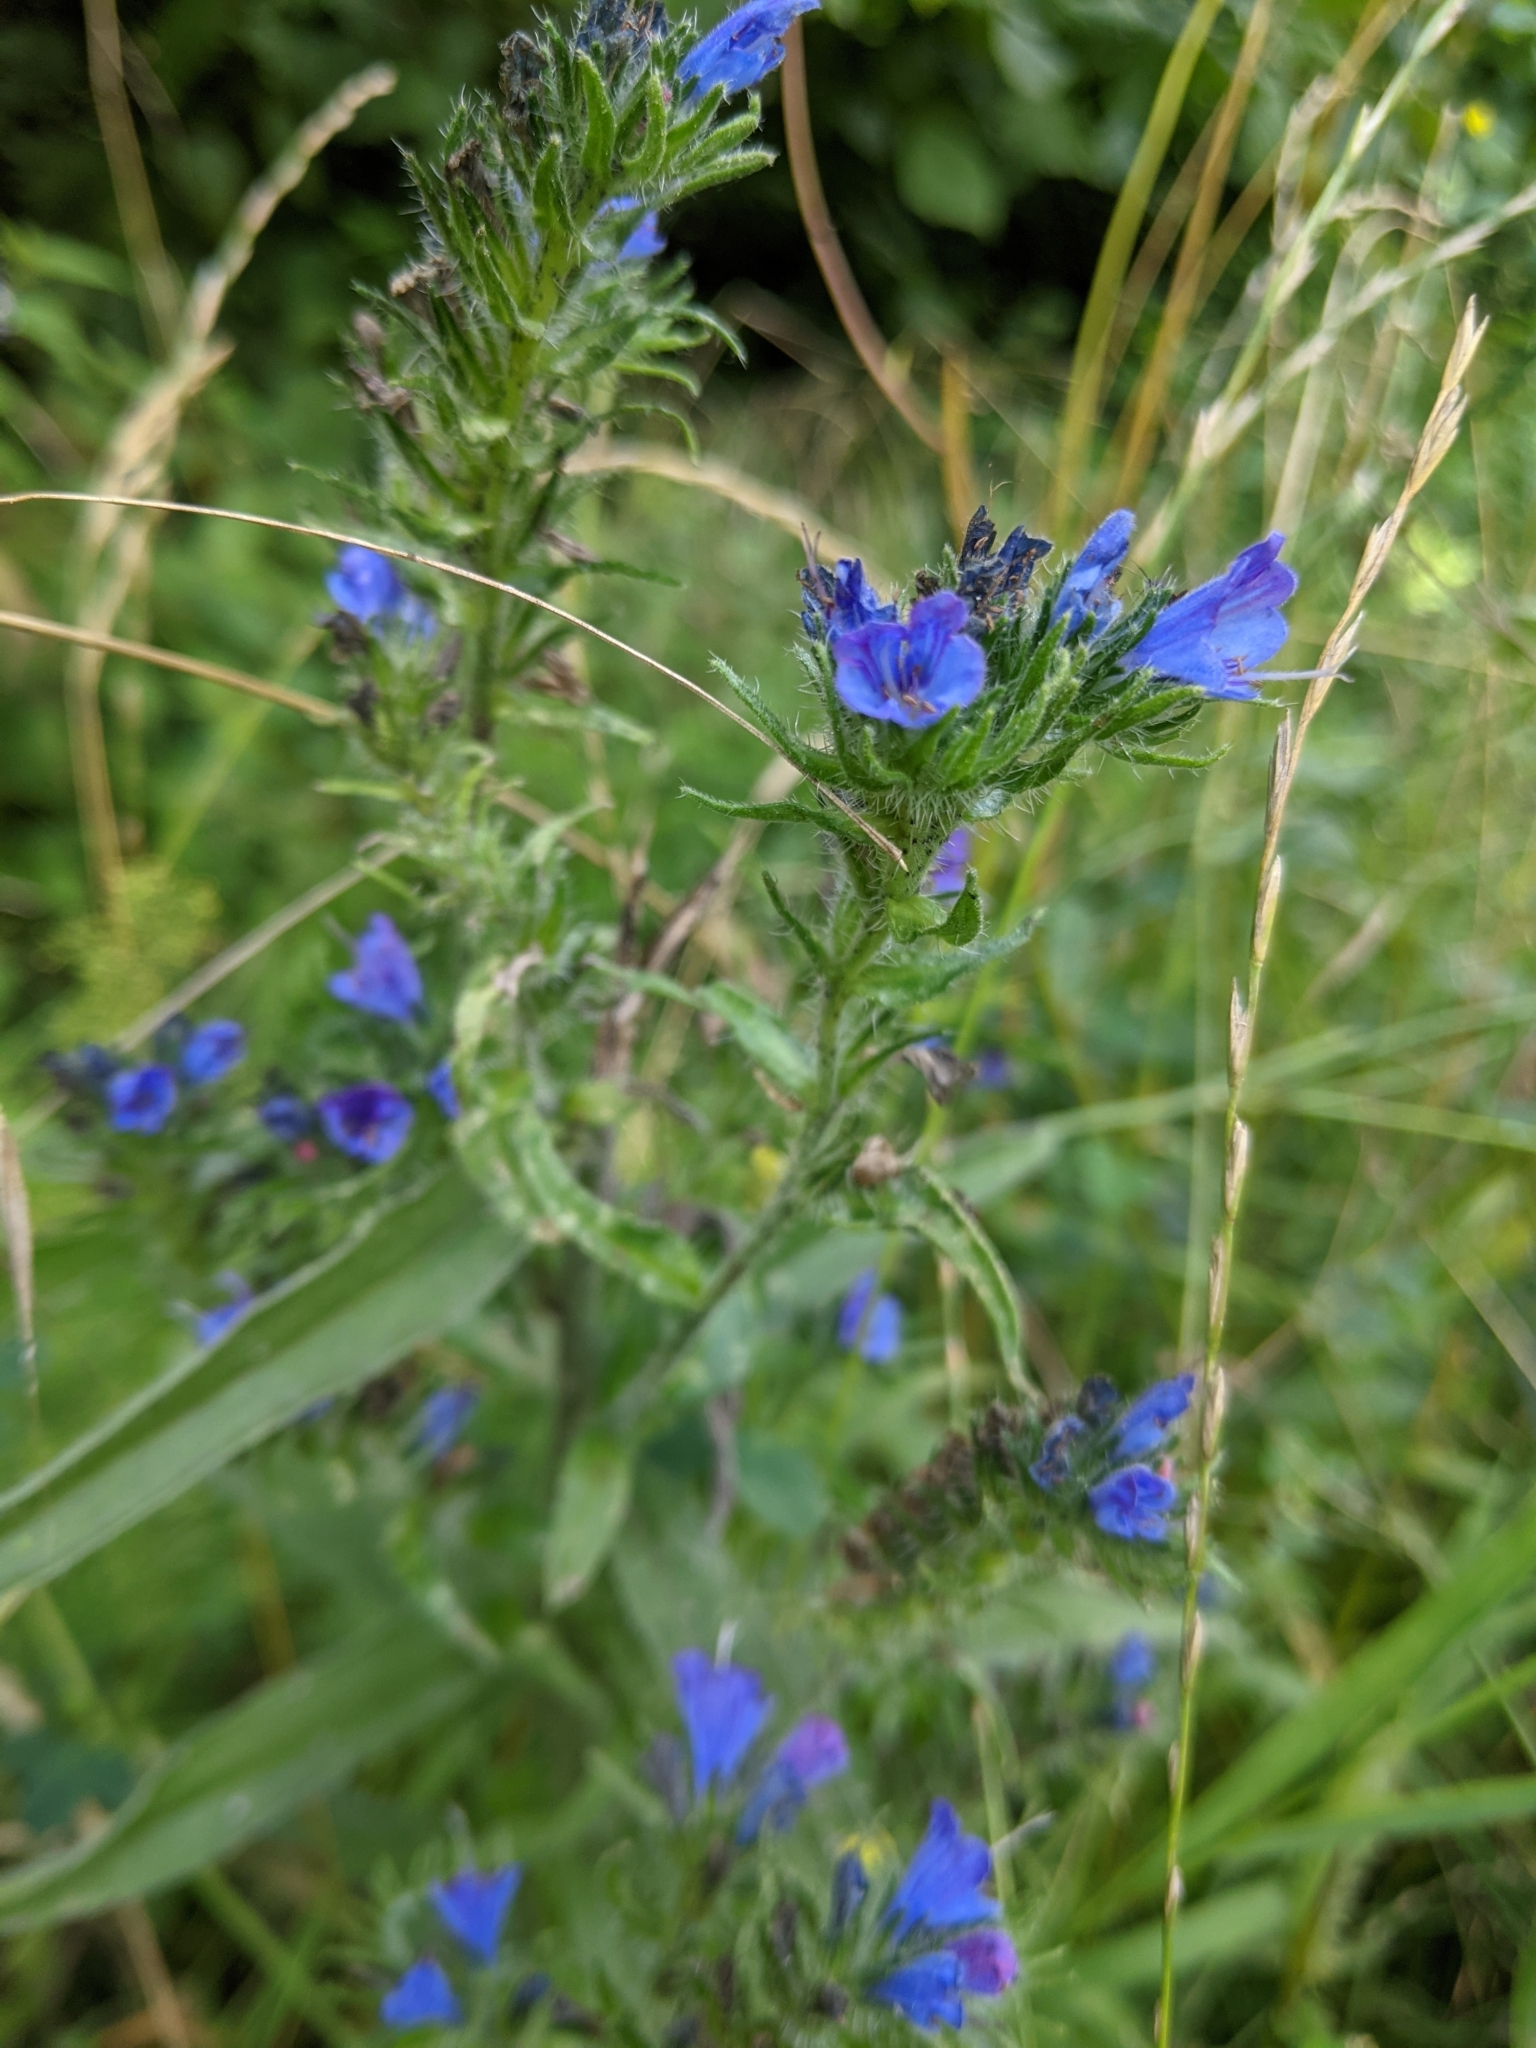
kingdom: Plantae
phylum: Tracheophyta
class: Magnoliopsida
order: Boraginales
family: Boraginaceae
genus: Echium
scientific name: Echium vulgare
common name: Common viper's bugloss
